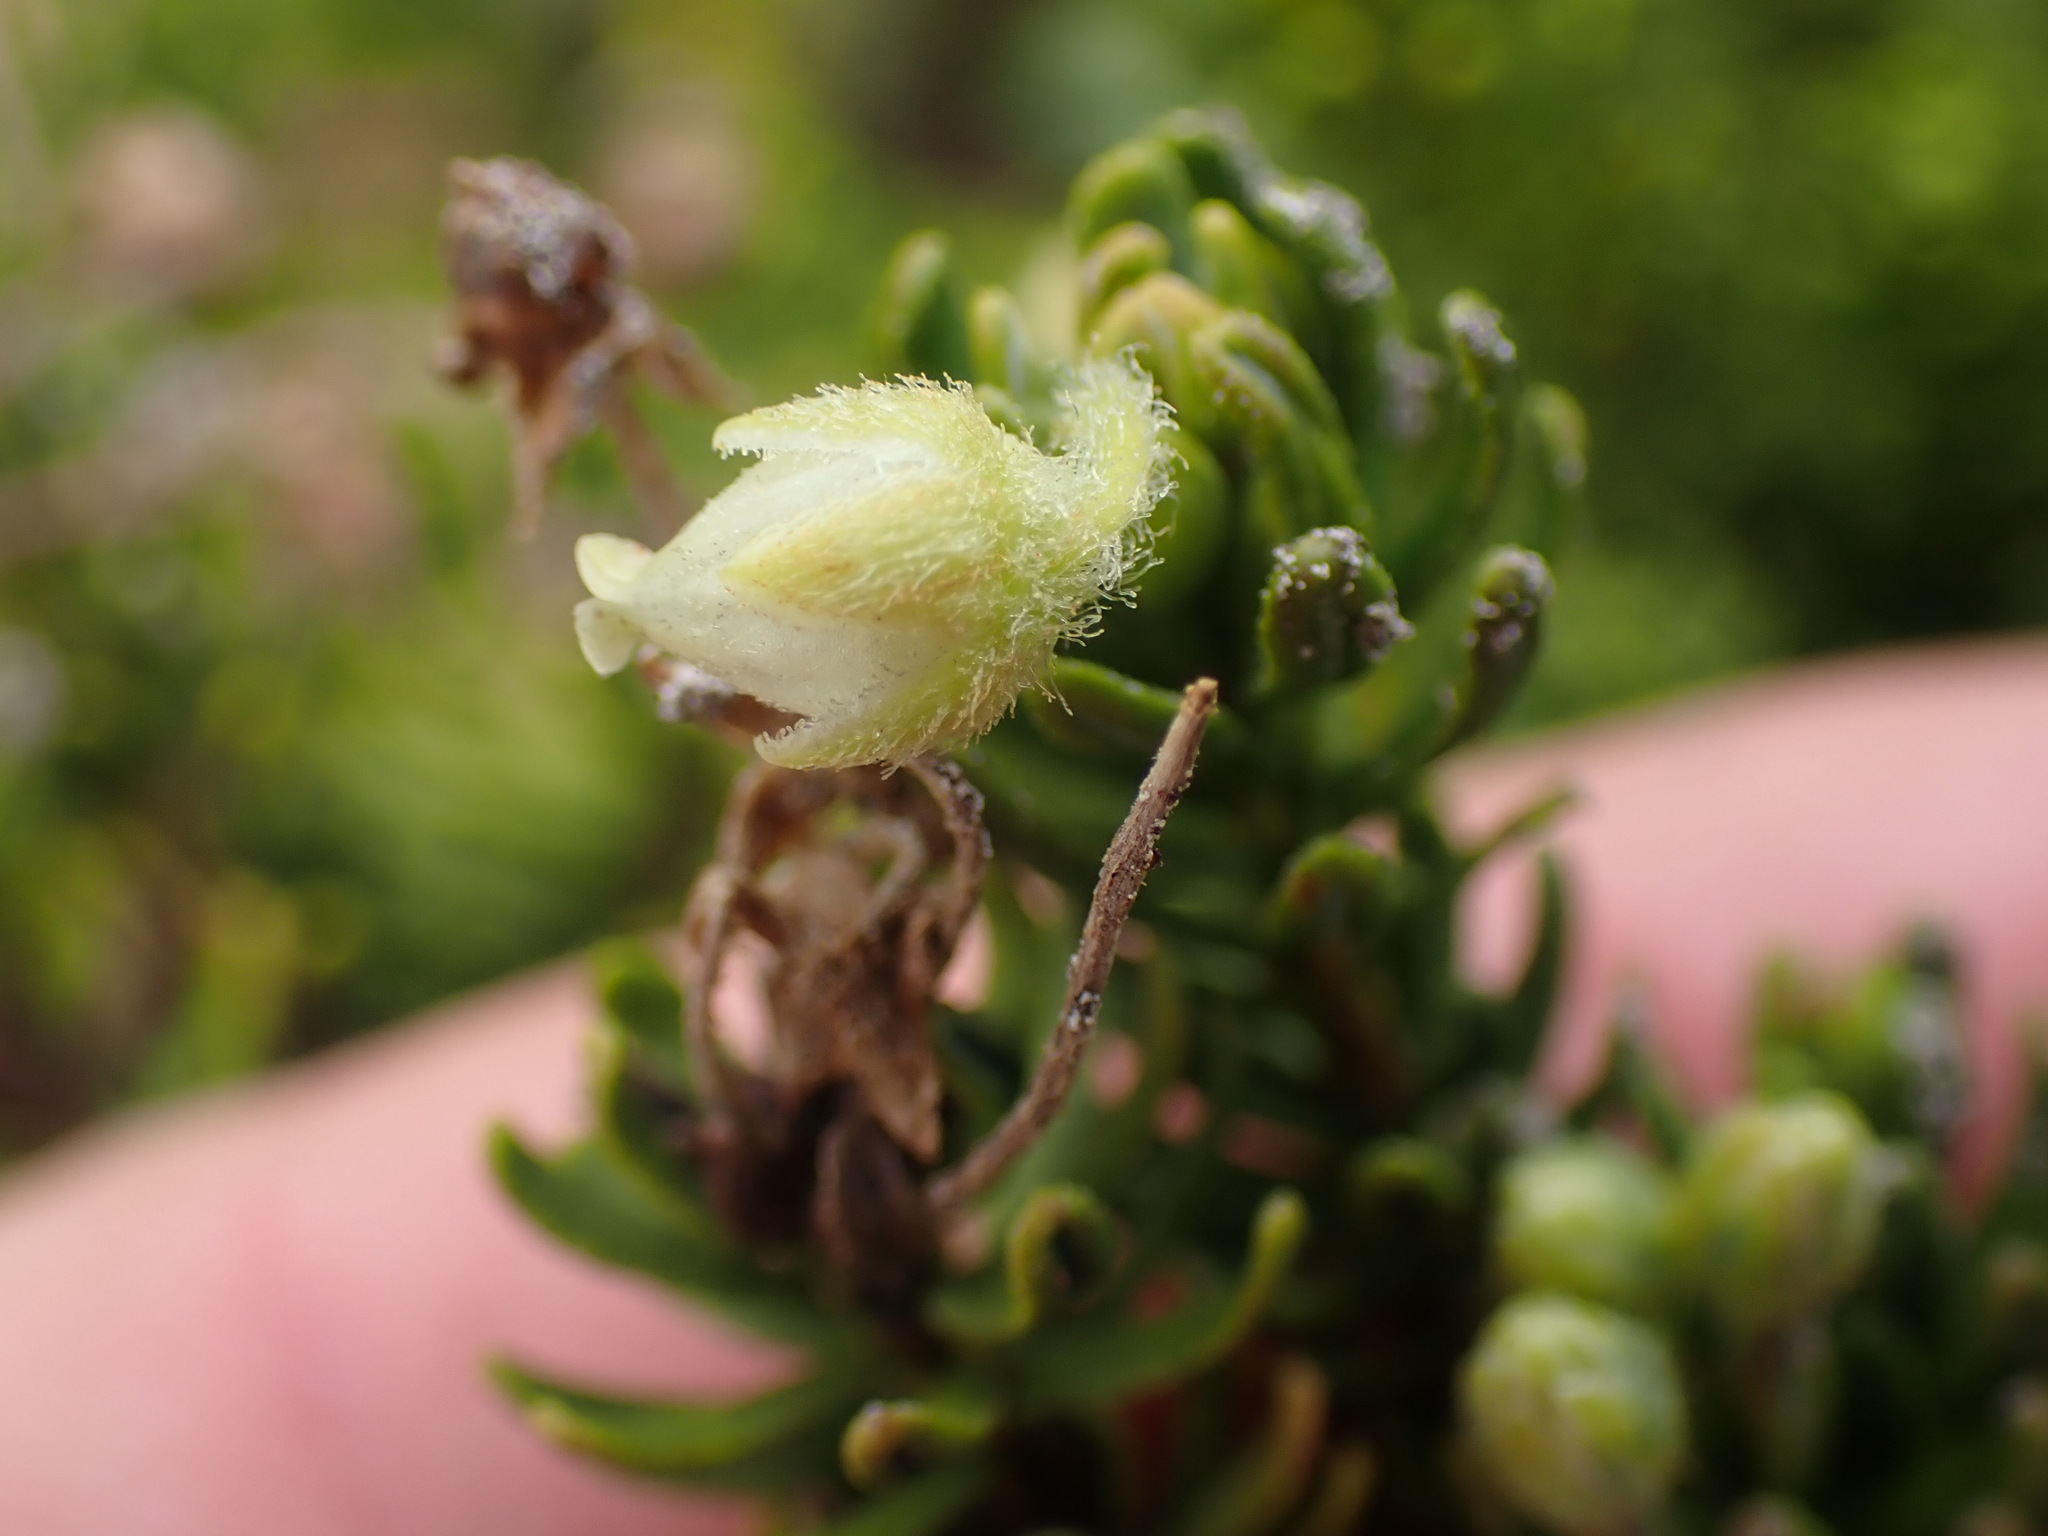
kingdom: Plantae
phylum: Tracheophyta
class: Magnoliopsida
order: Ericales
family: Ericaceae
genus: Phyllodoce
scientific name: Phyllodoce glanduliflora
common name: Cream mountain heather
